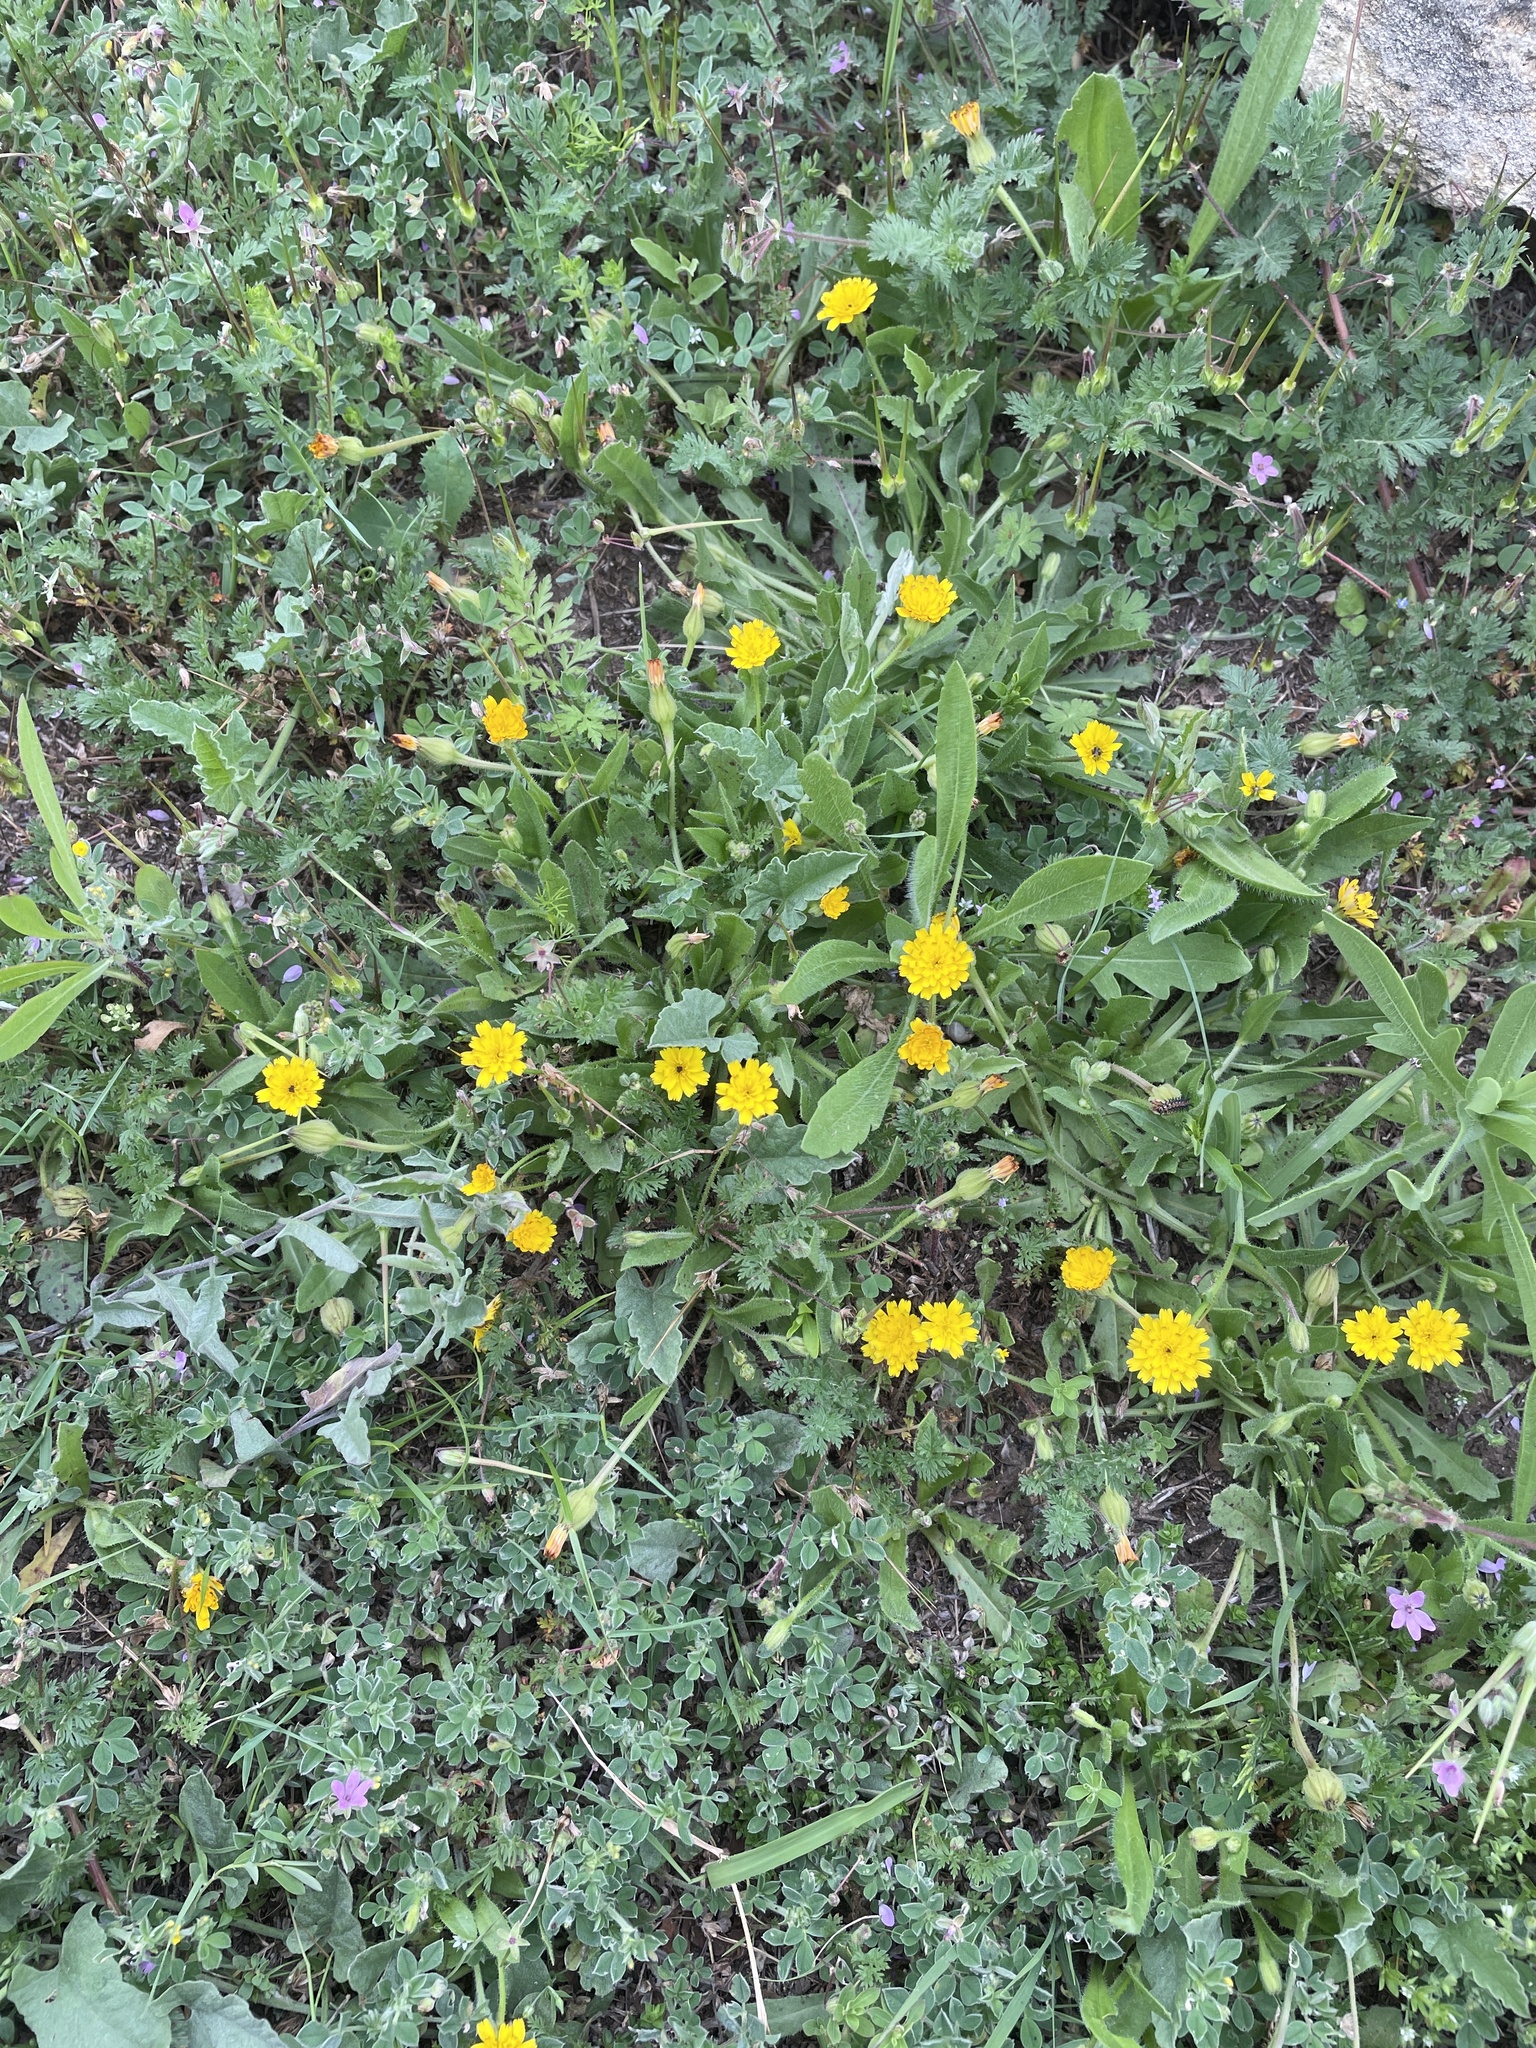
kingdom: Plantae
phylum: Tracheophyta
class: Magnoliopsida
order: Asterales
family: Asteraceae
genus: Hedypnois
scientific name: Hedypnois rhagadioloides
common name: Cretan weed
